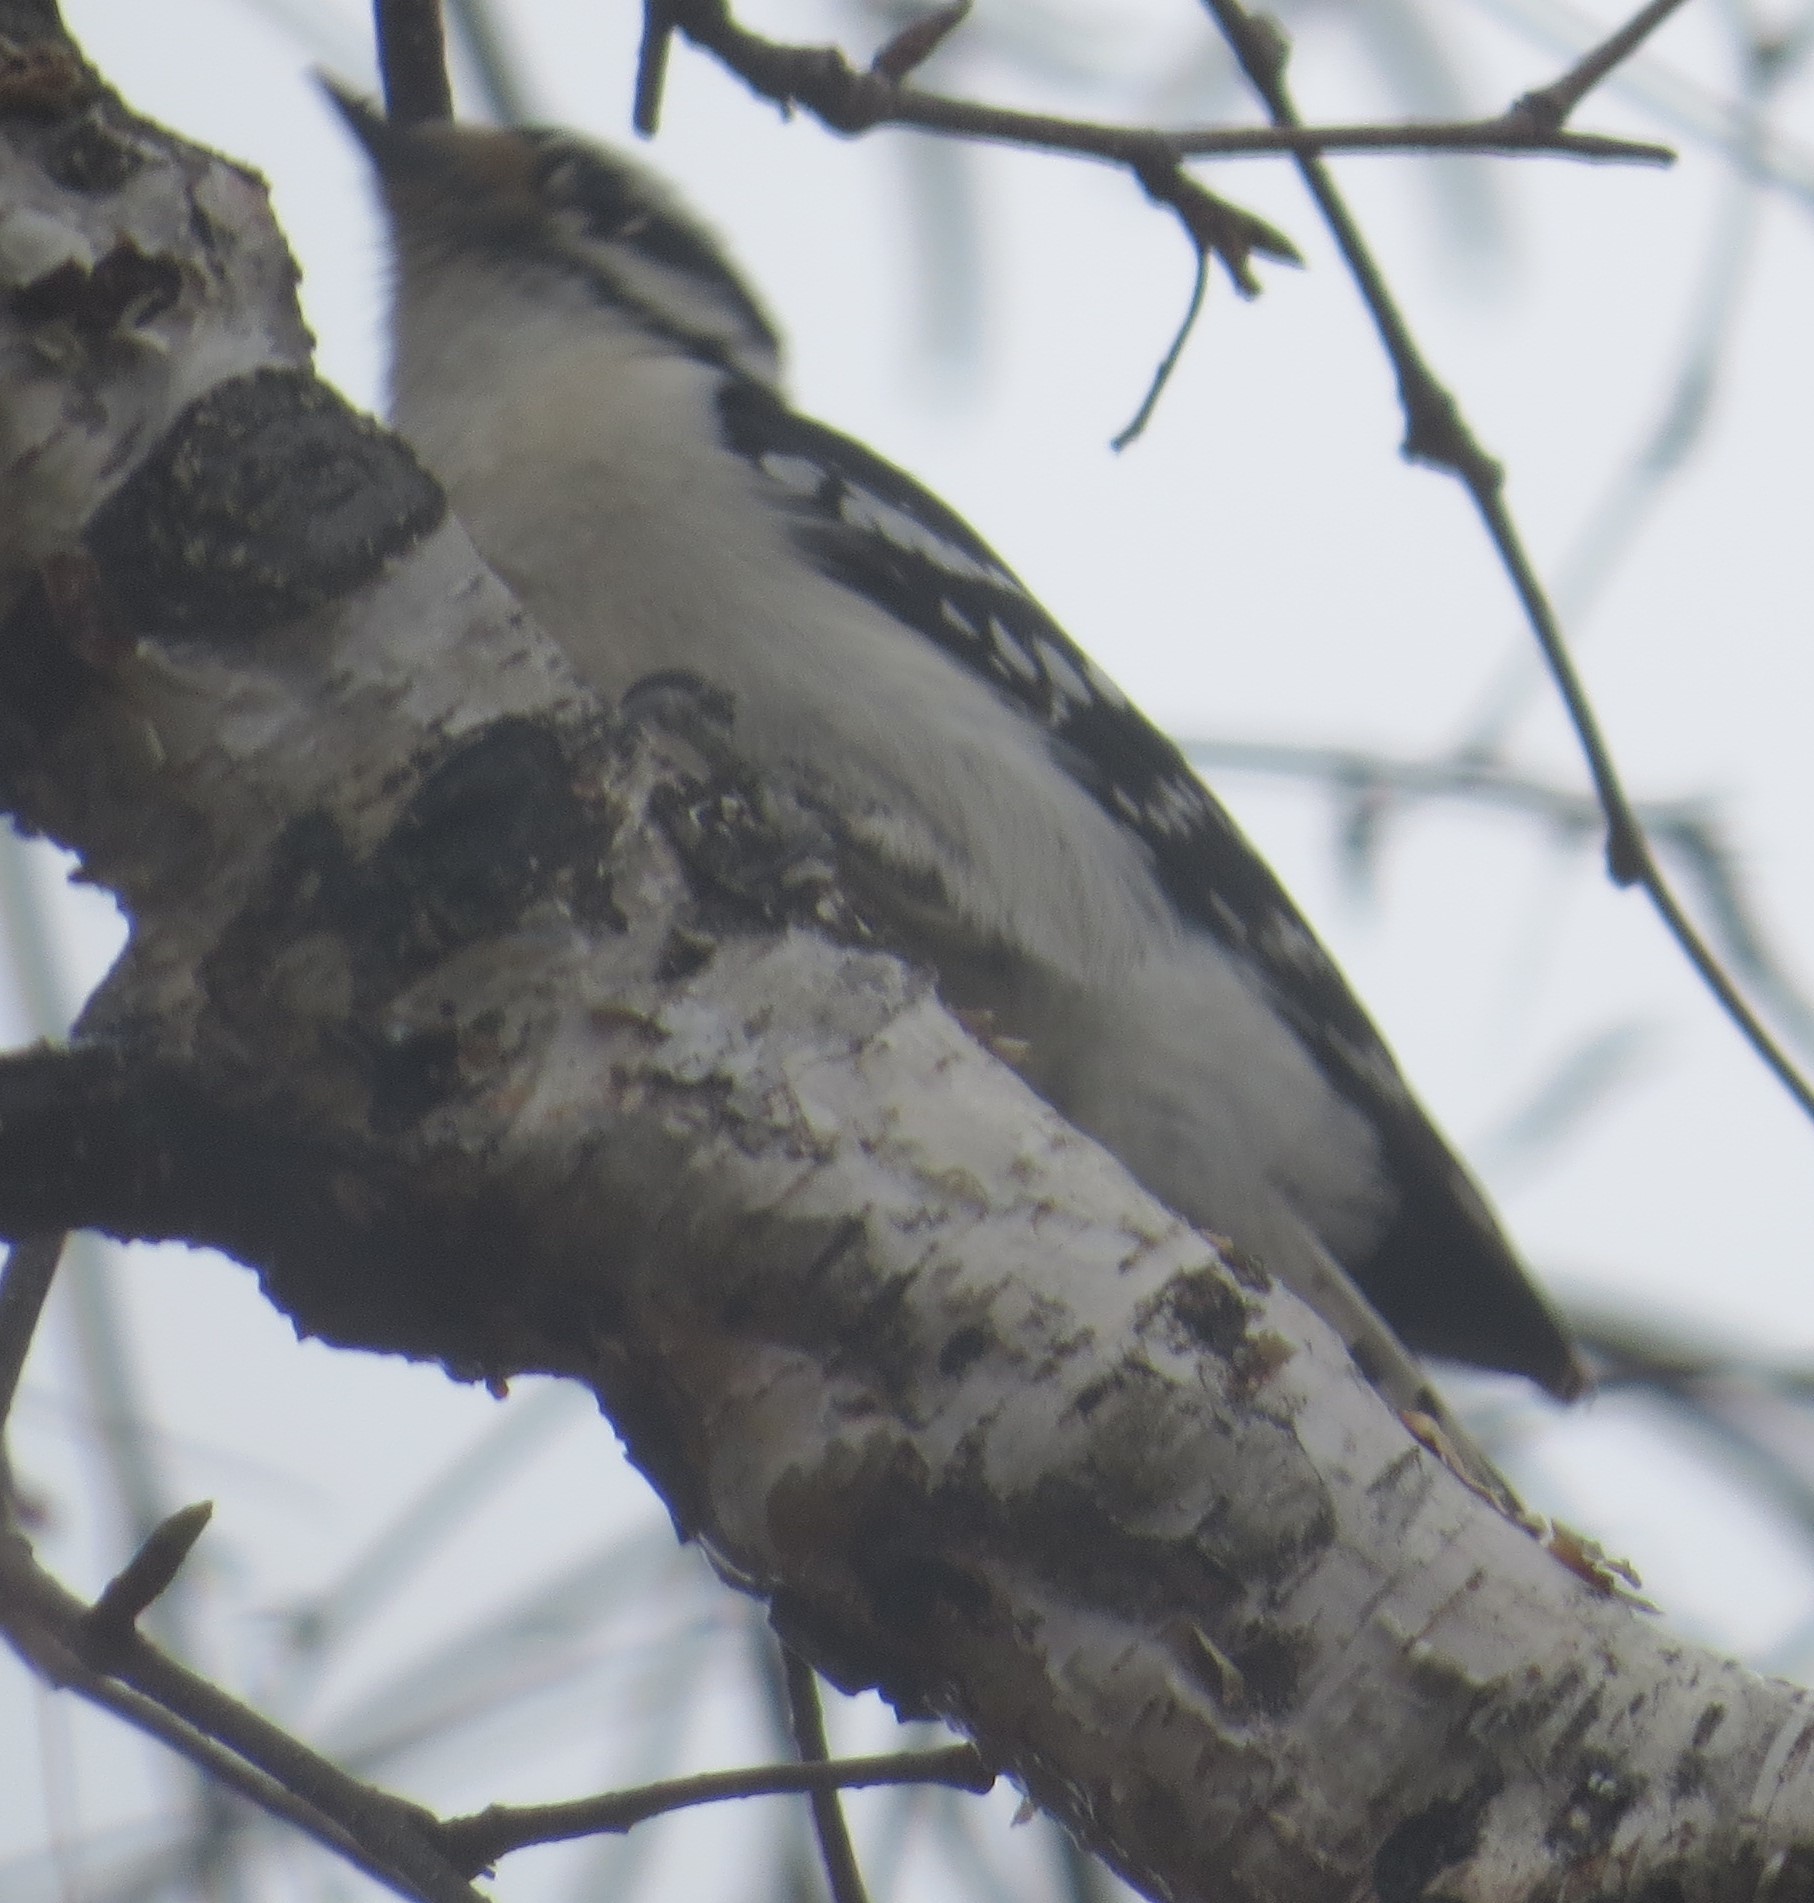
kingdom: Animalia
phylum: Chordata
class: Aves
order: Piciformes
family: Picidae
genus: Dryobates
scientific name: Dryobates pubescens
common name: Downy woodpecker
